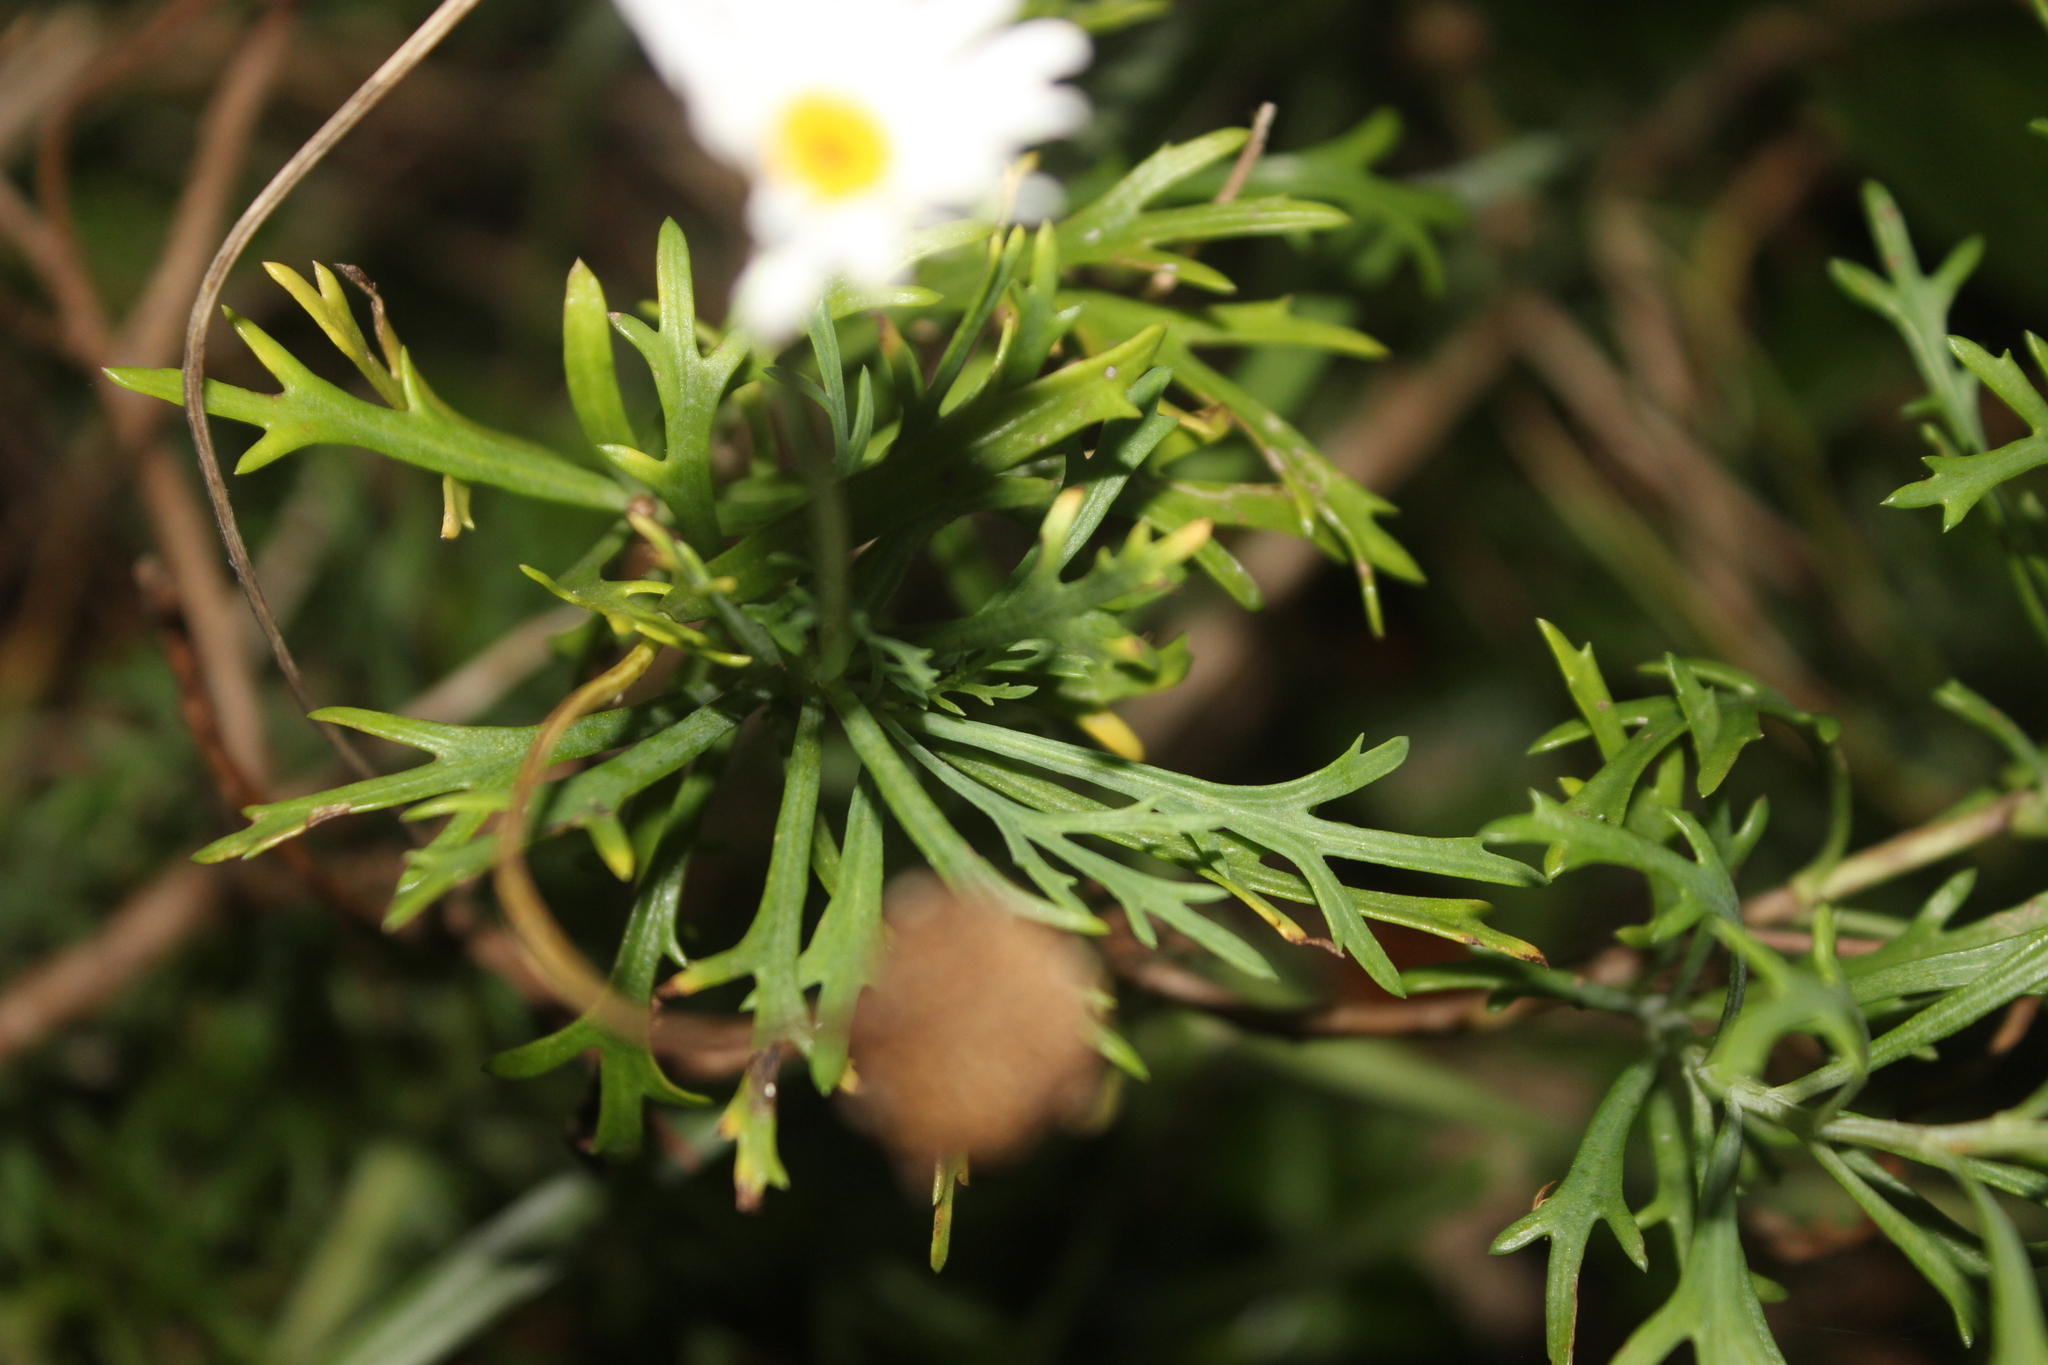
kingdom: Plantae
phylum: Tracheophyta
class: Magnoliopsida
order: Asterales
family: Asteraceae
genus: Leucanthemum
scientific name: Leucanthemum maximum
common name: Max chrysanthemum
